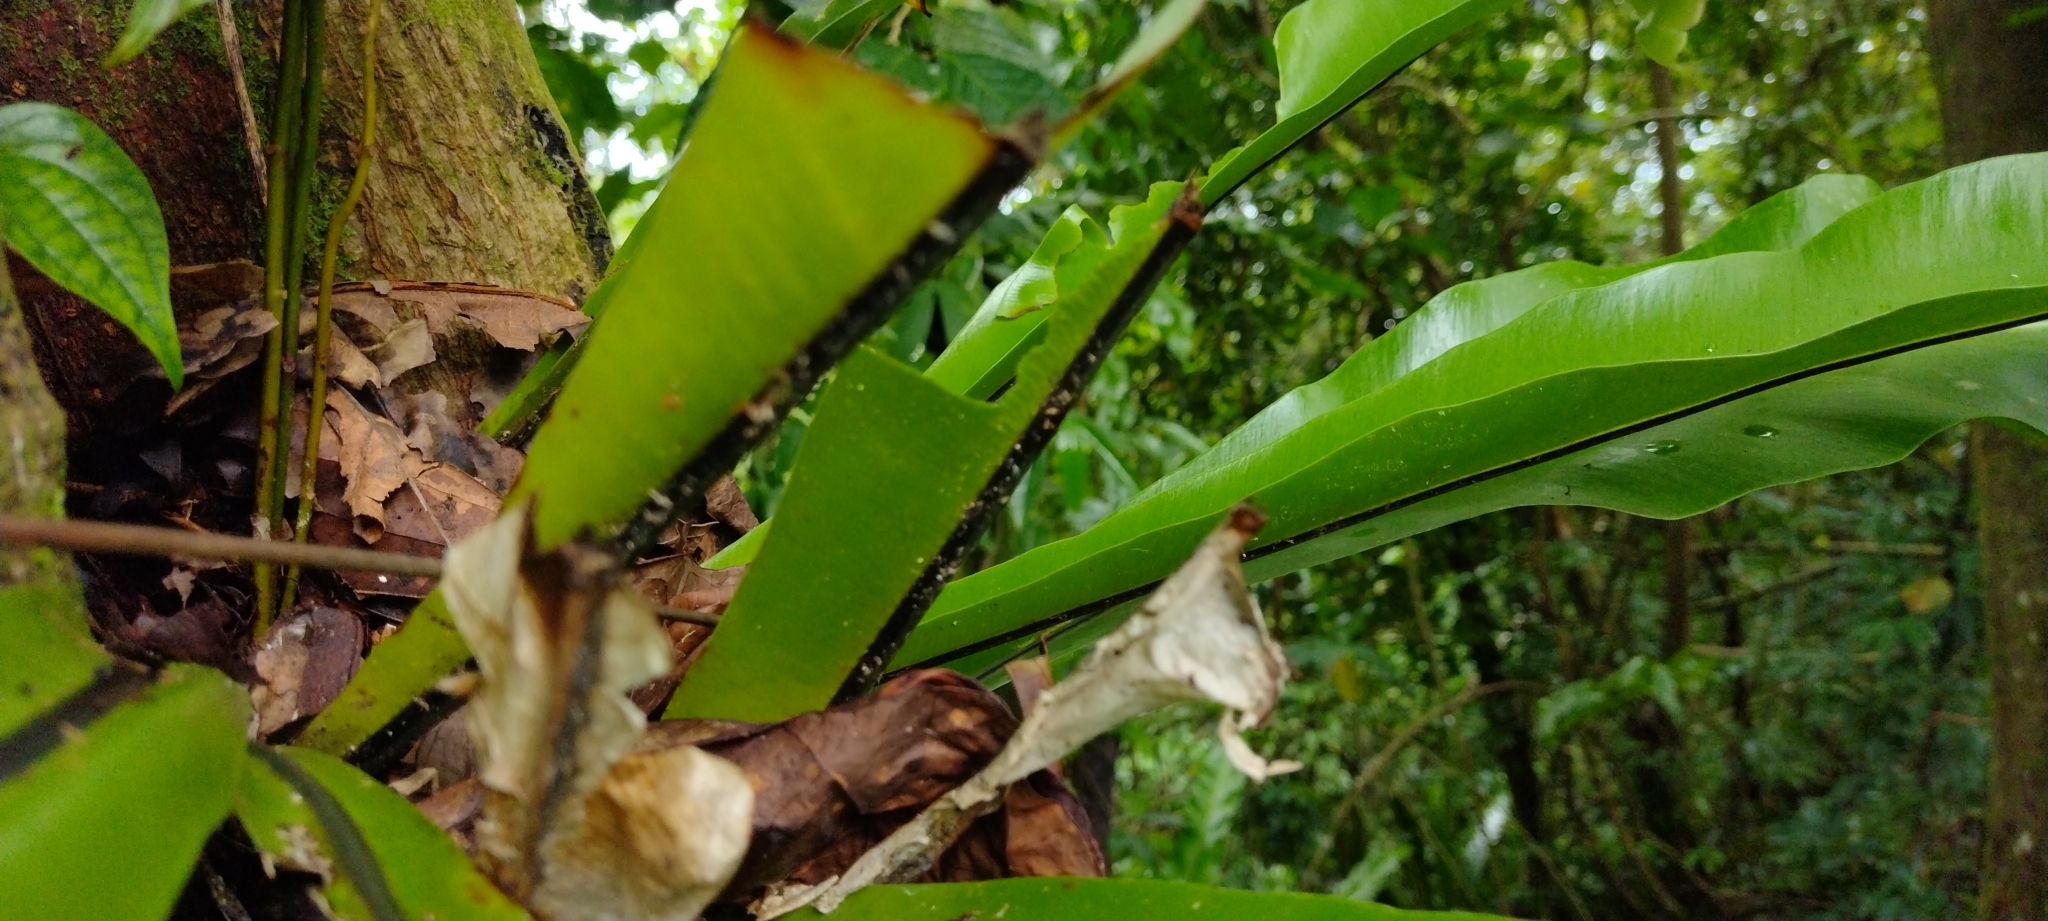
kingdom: Plantae
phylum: Tracheophyta
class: Polypodiopsida
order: Polypodiales
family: Aspleniaceae
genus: Asplenium
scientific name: Asplenium nidus
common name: Bird's-nest fern
